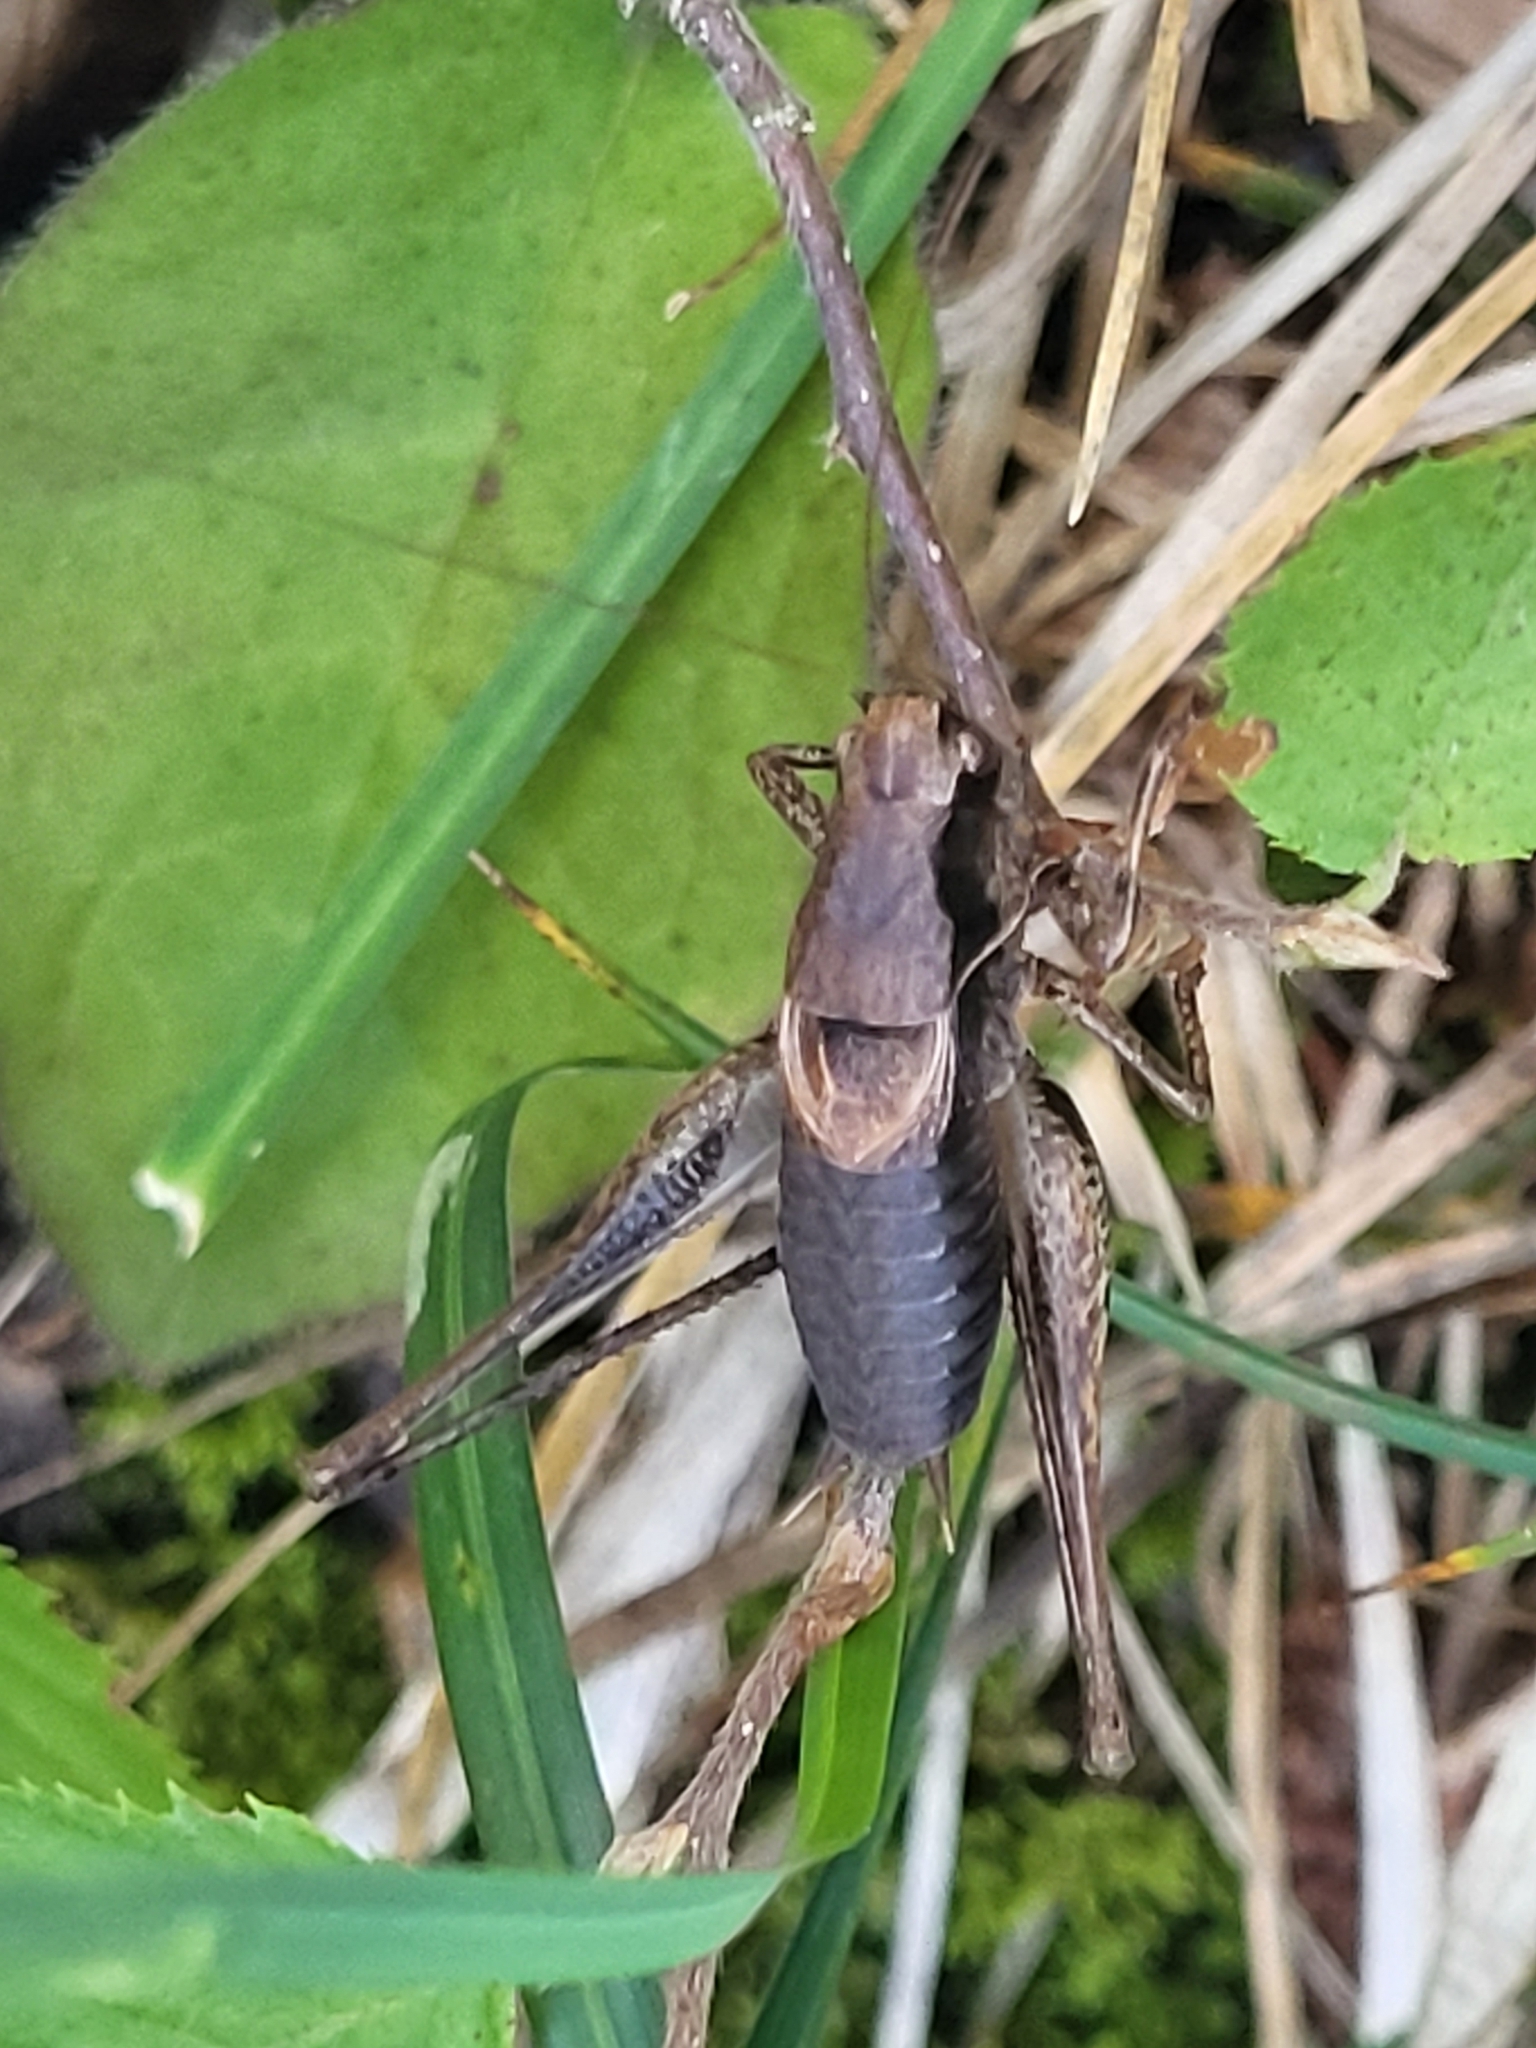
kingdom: Animalia
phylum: Arthropoda
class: Insecta
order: Orthoptera
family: Tettigoniidae
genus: Pholidoptera
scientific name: Pholidoptera griseoaptera
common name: Dark bush-cricket
